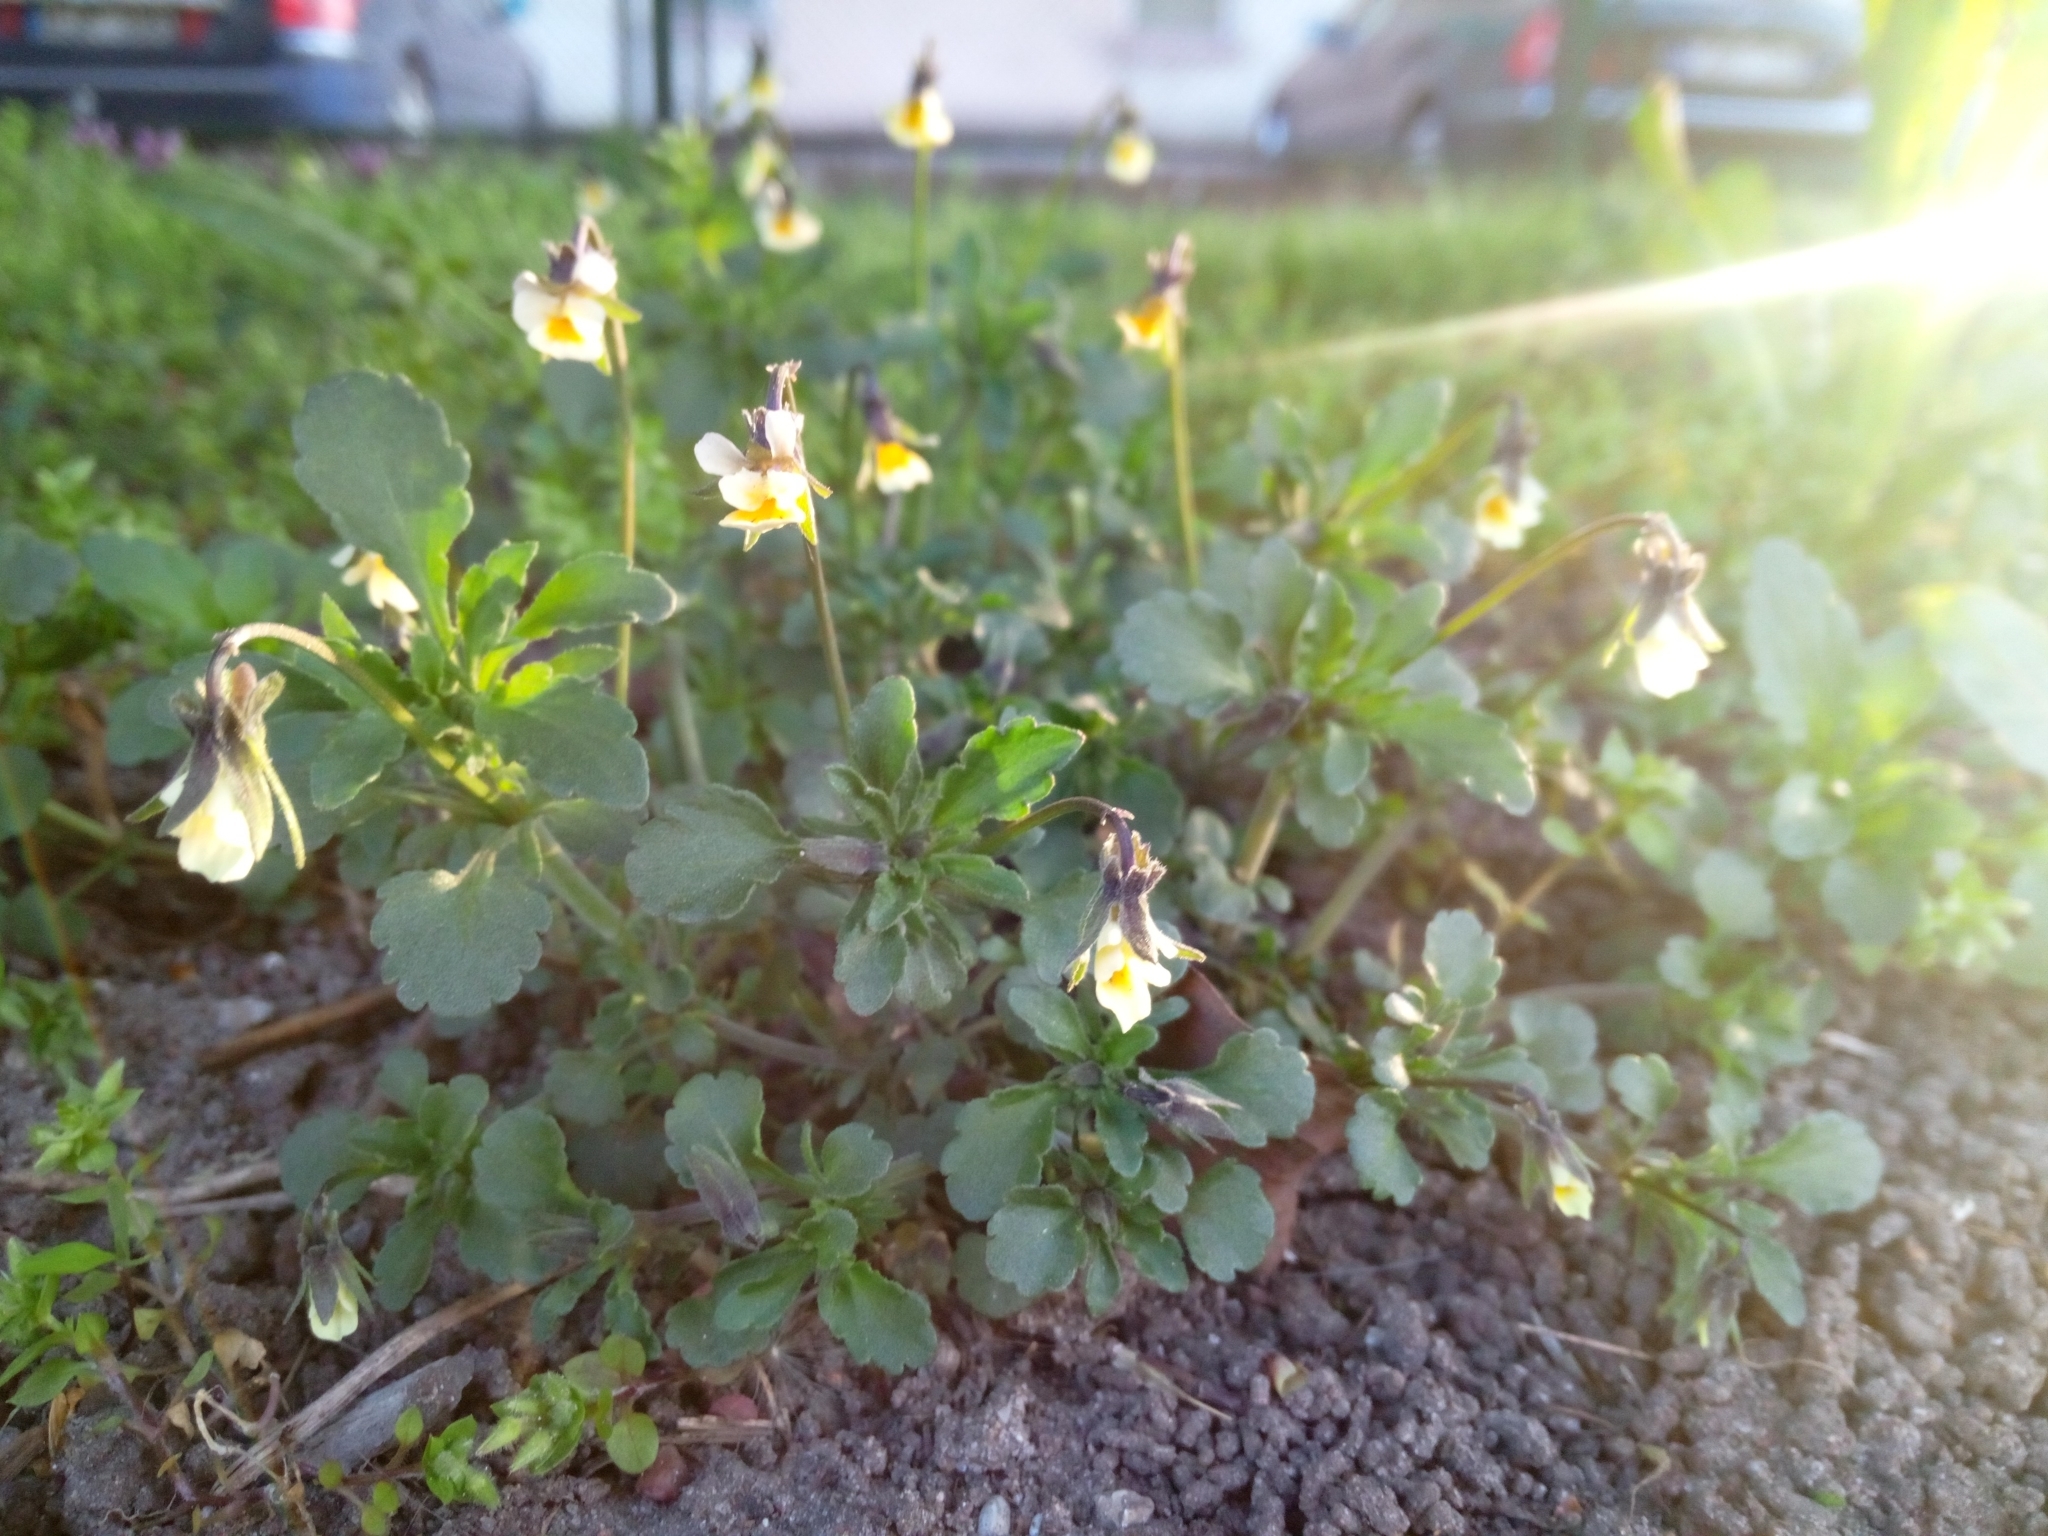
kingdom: Plantae
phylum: Tracheophyta
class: Magnoliopsida
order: Malpighiales
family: Violaceae
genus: Viola
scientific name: Viola arvensis
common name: Field pansy
